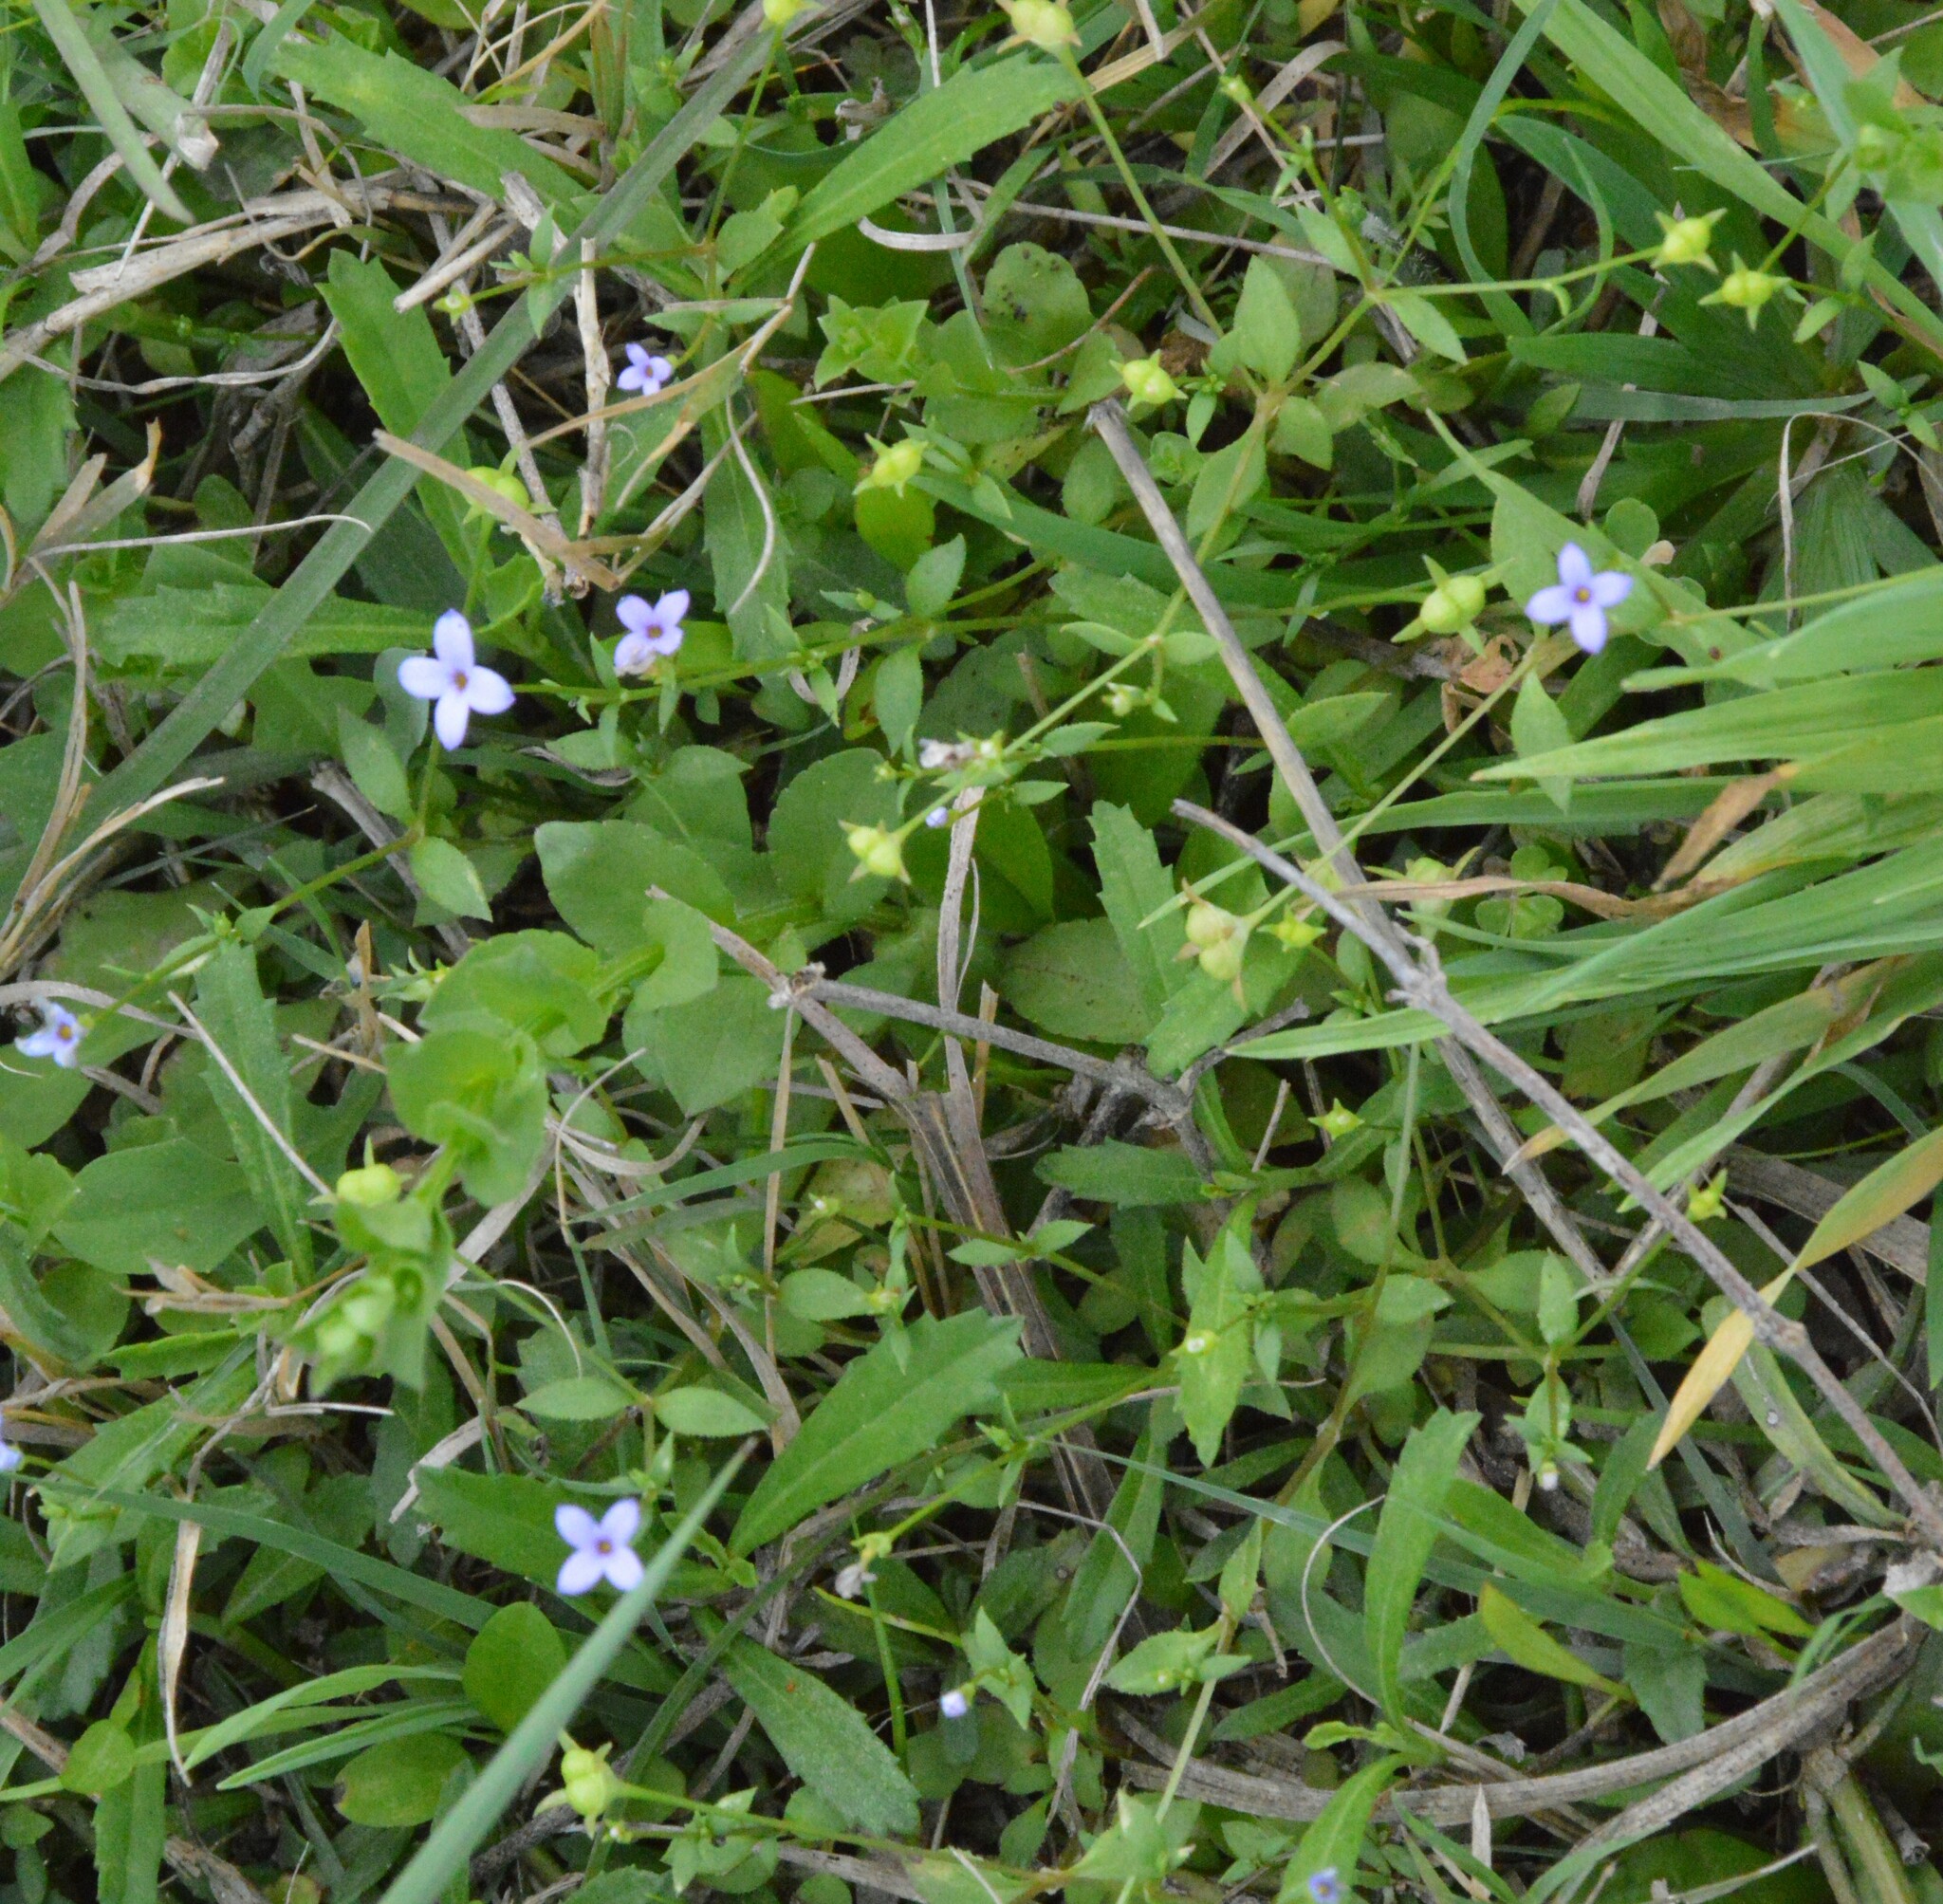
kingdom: Plantae
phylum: Tracheophyta
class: Magnoliopsida
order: Gentianales
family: Rubiaceae
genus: Houstonia
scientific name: Houstonia pusilla
